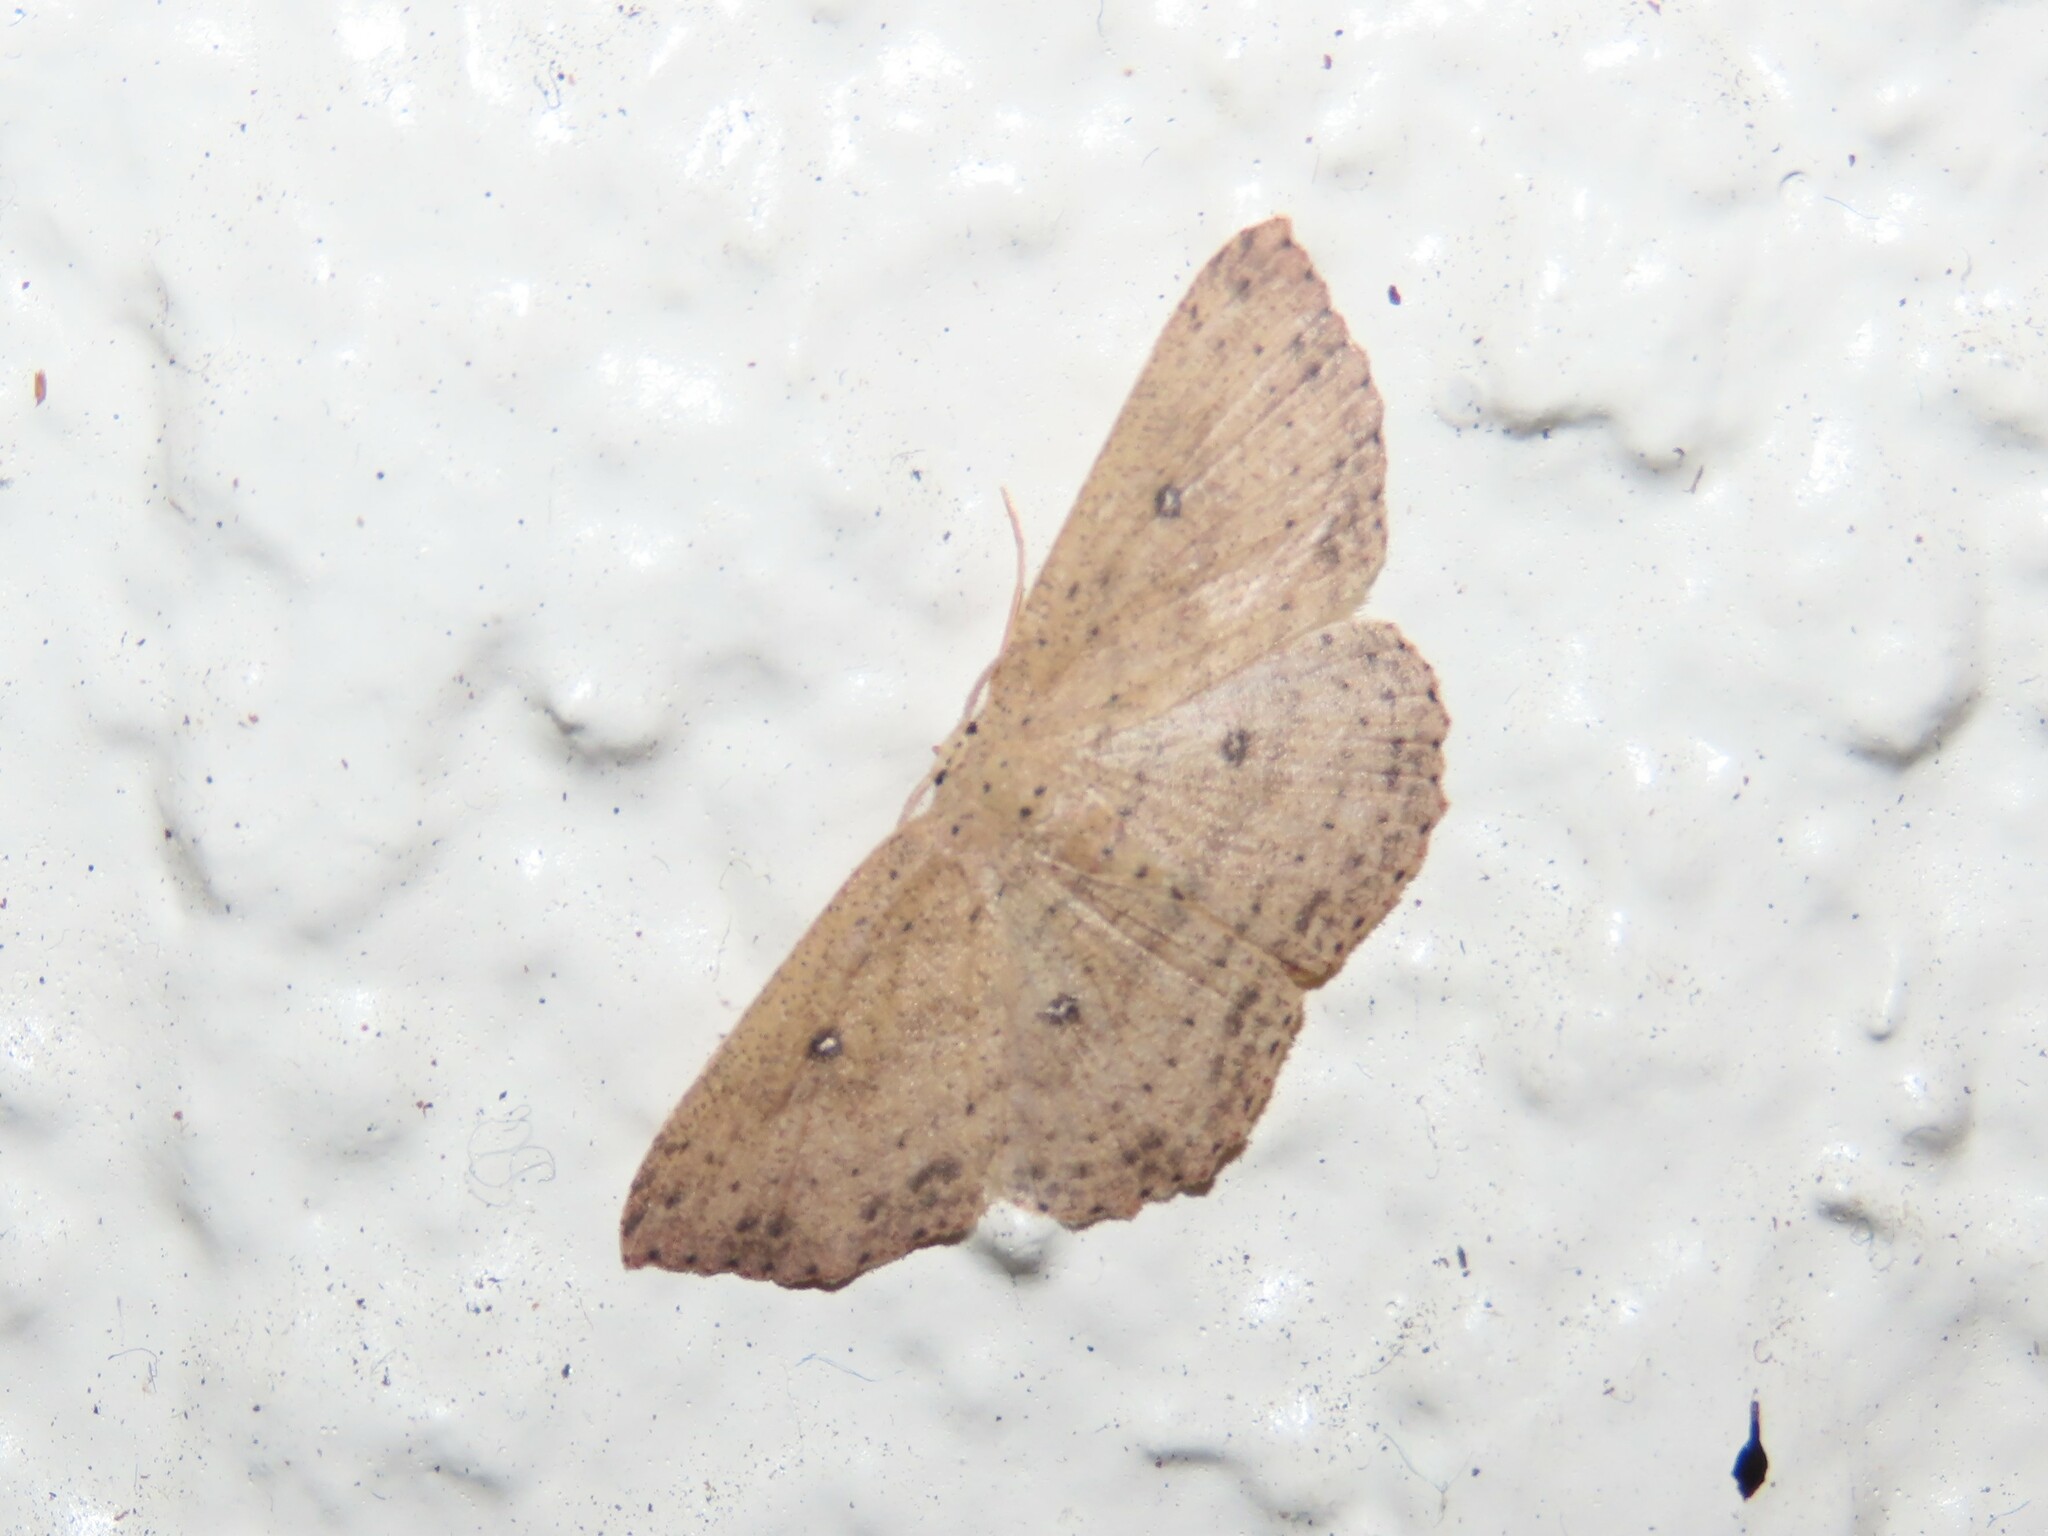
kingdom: Animalia
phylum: Arthropoda
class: Insecta
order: Lepidoptera
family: Geometridae
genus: Cyclophora
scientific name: Cyclophora myrtaria
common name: Waxmyrtle wave moth
